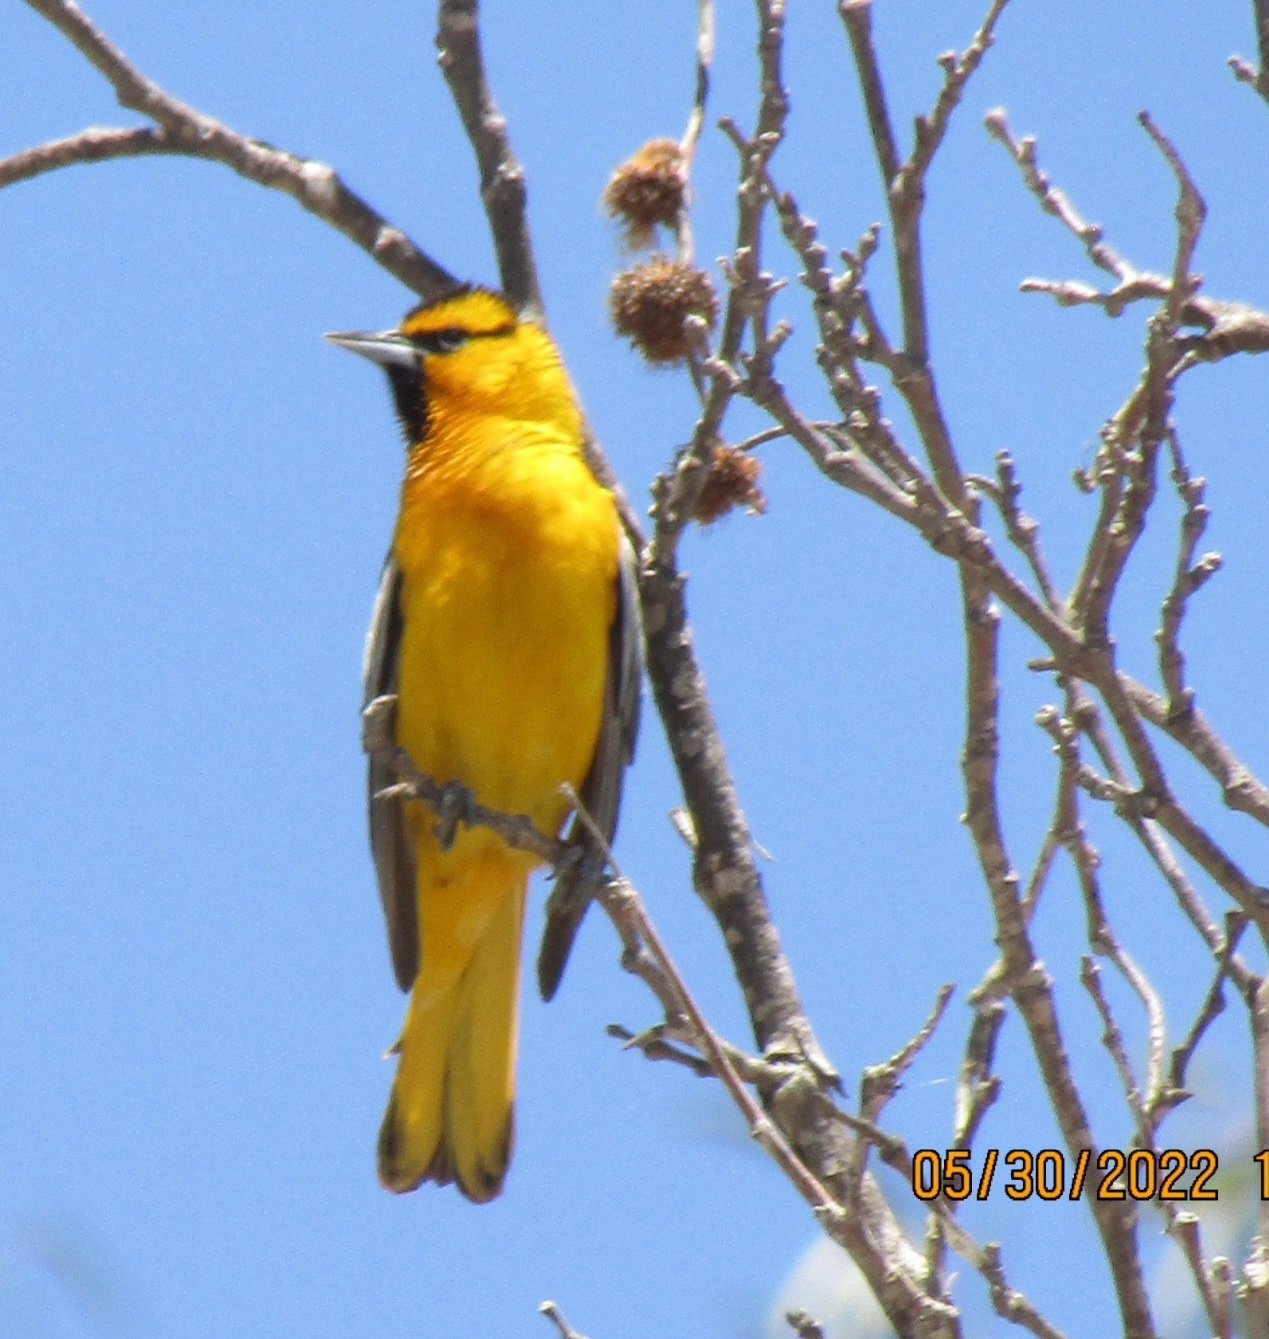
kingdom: Animalia
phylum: Chordata
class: Aves
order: Passeriformes
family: Icteridae
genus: Icterus
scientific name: Icterus bullockii
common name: Bullock's oriole
